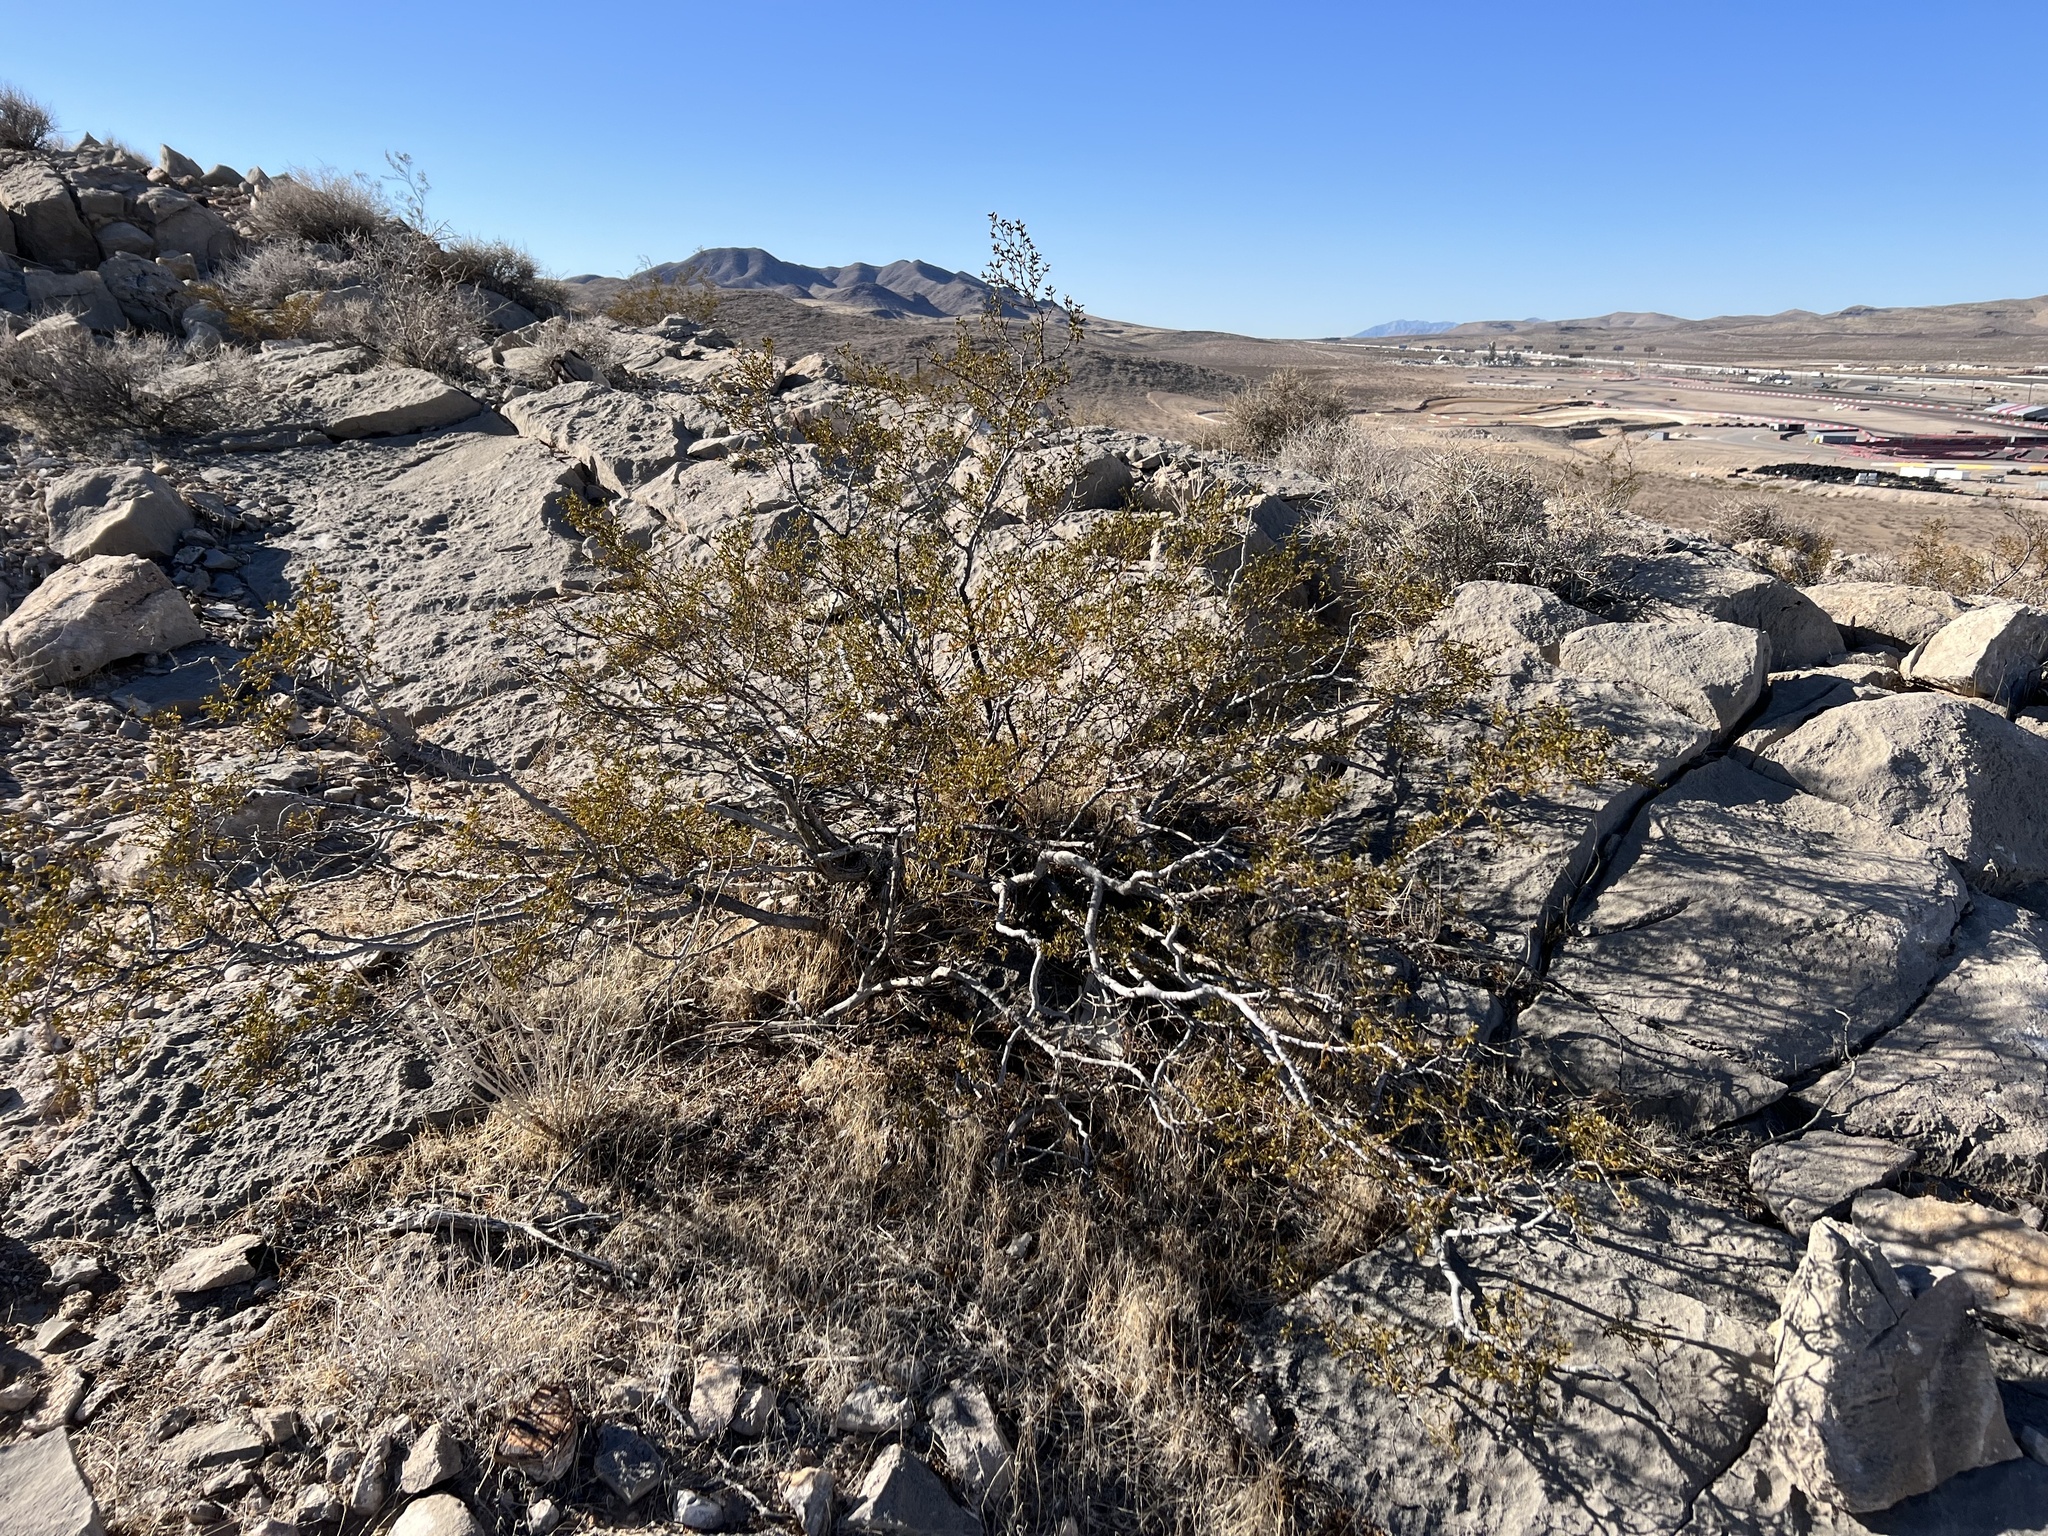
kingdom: Plantae
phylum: Tracheophyta
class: Magnoliopsida
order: Zygophyllales
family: Zygophyllaceae
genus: Larrea
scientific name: Larrea tridentata
